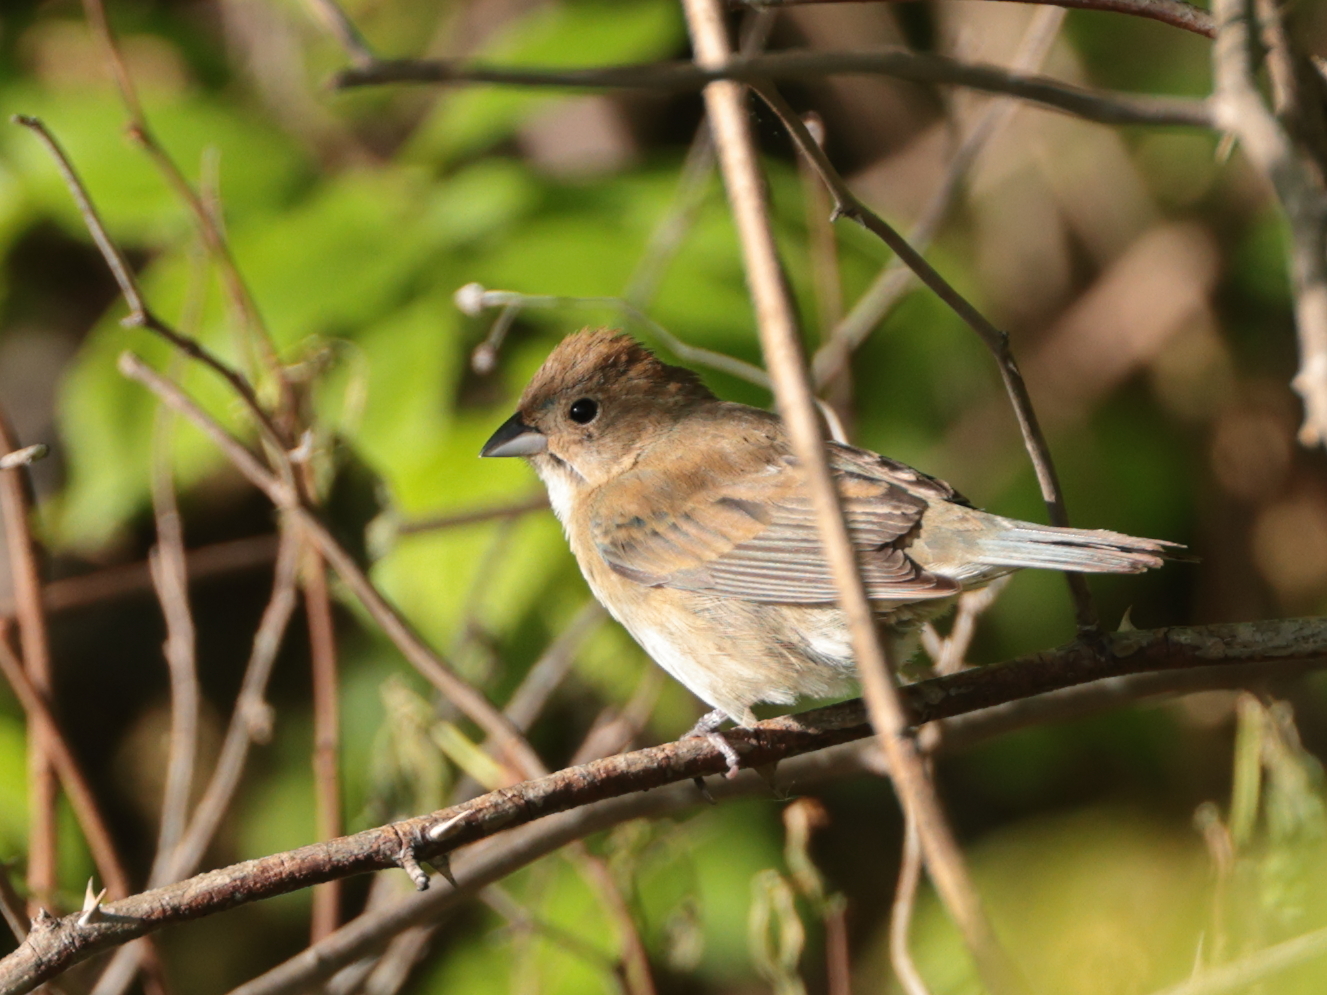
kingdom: Animalia
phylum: Chordata
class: Aves
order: Passeriformes
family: Cardinalidae
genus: Passerina
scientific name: Passerina cyanea
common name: Indigo bunting
